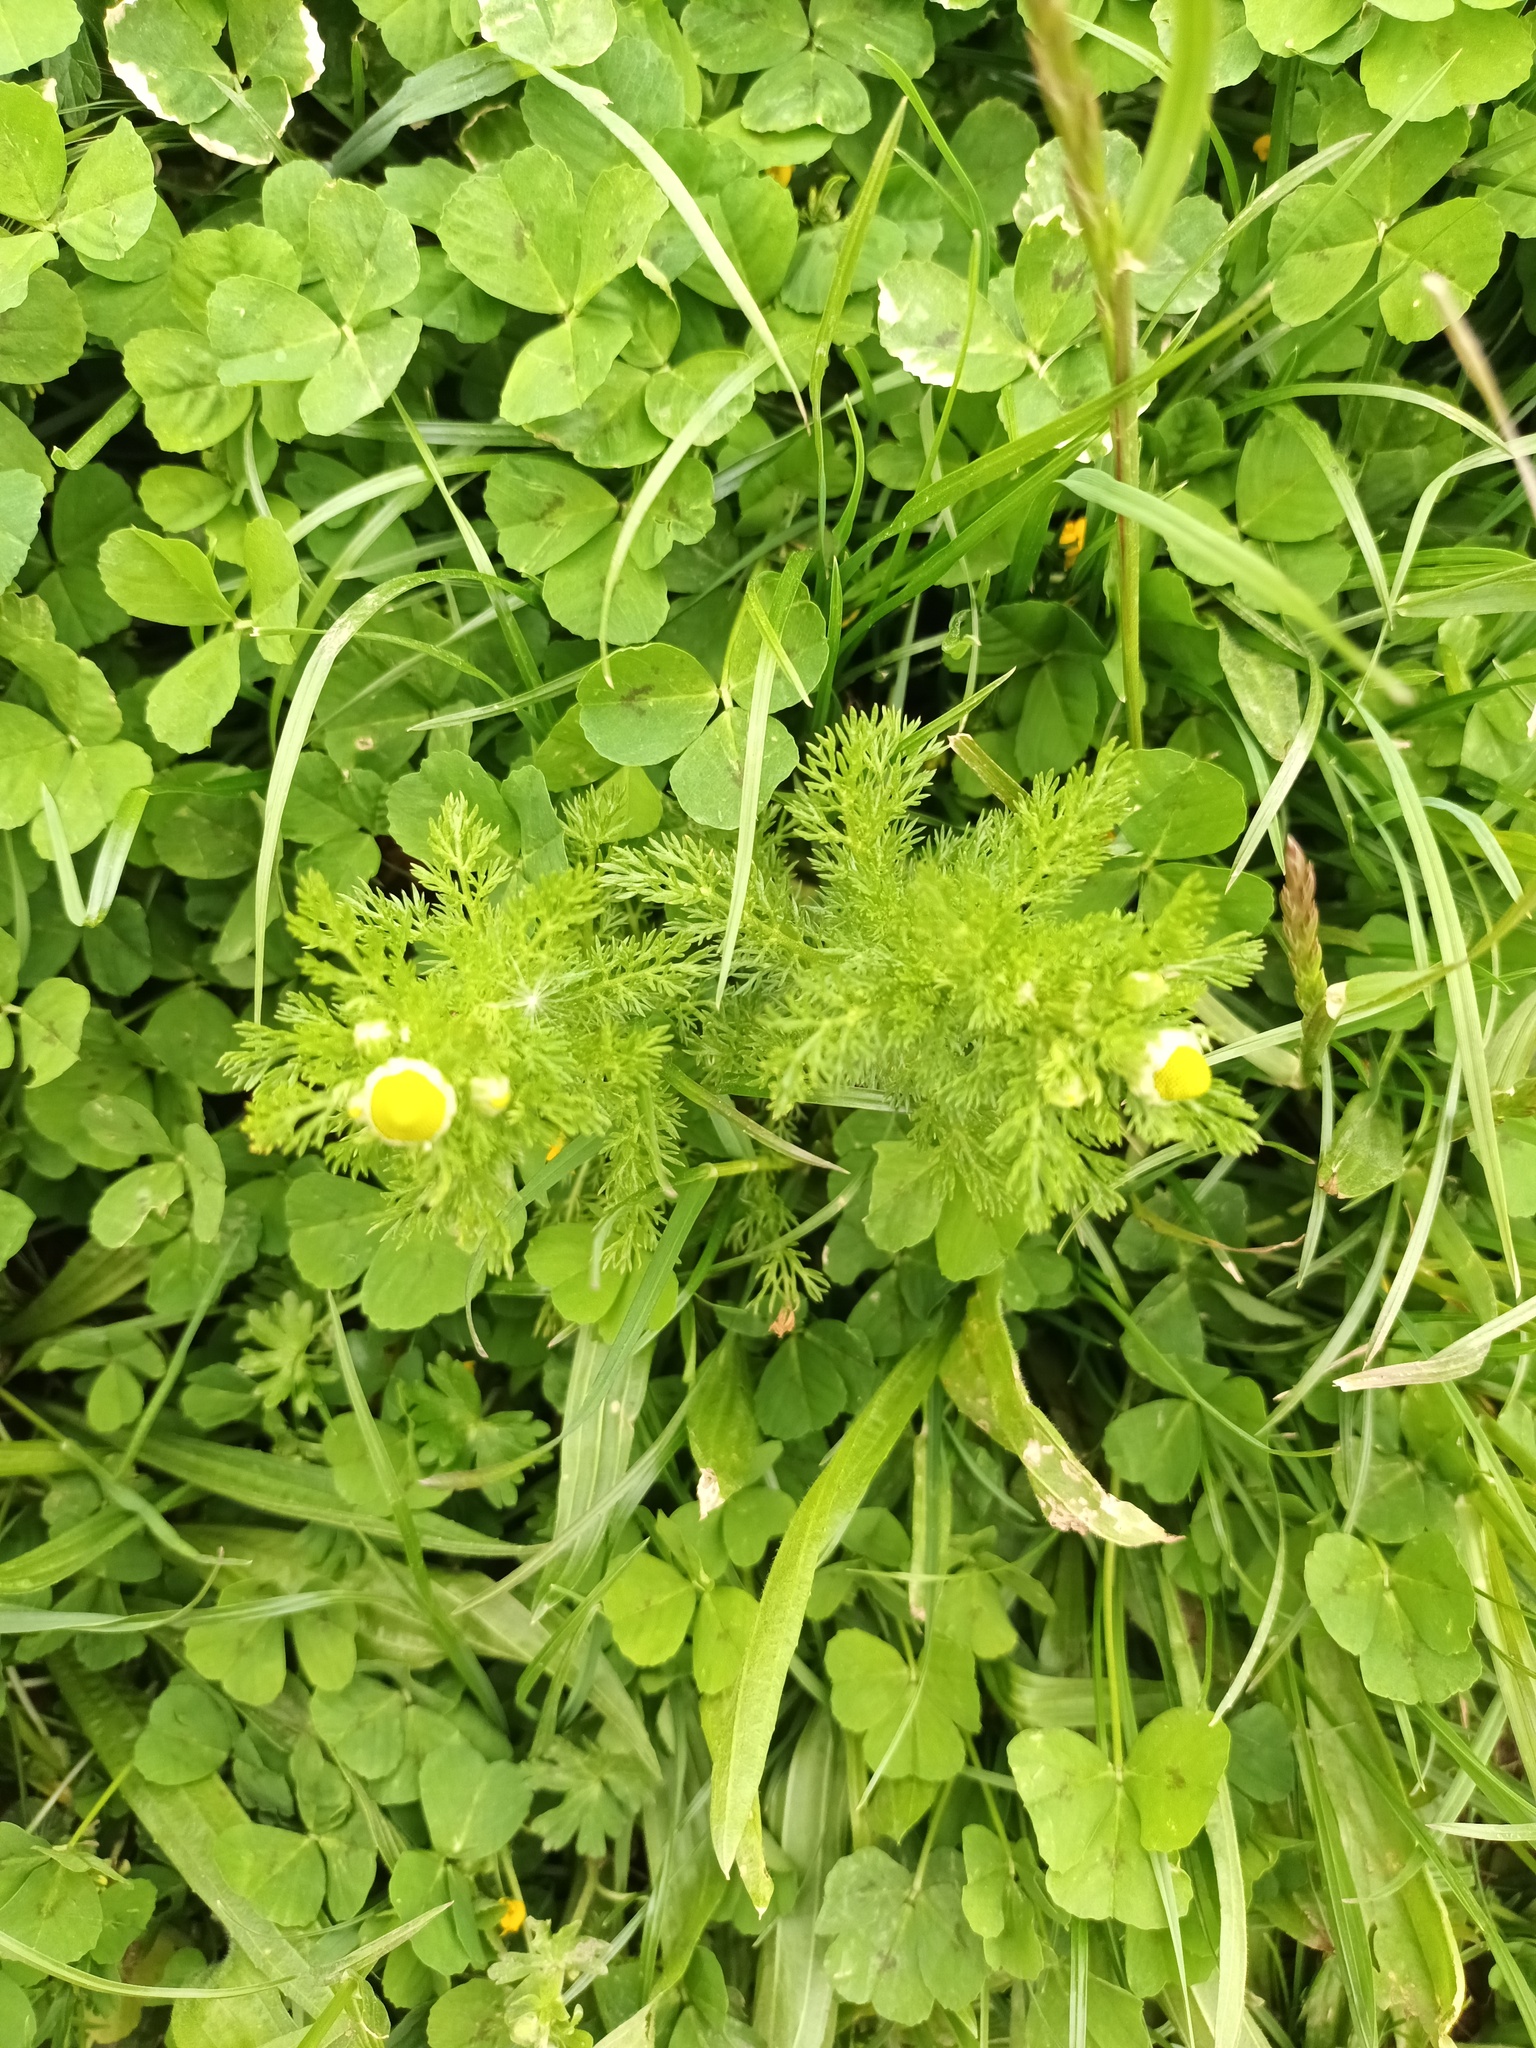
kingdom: Plantae
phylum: Tracheophyta
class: Magnoliopsida
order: Asterales
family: Asteraceae
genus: Matricaria
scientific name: Matricaria discoidea
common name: Disc mayweed
